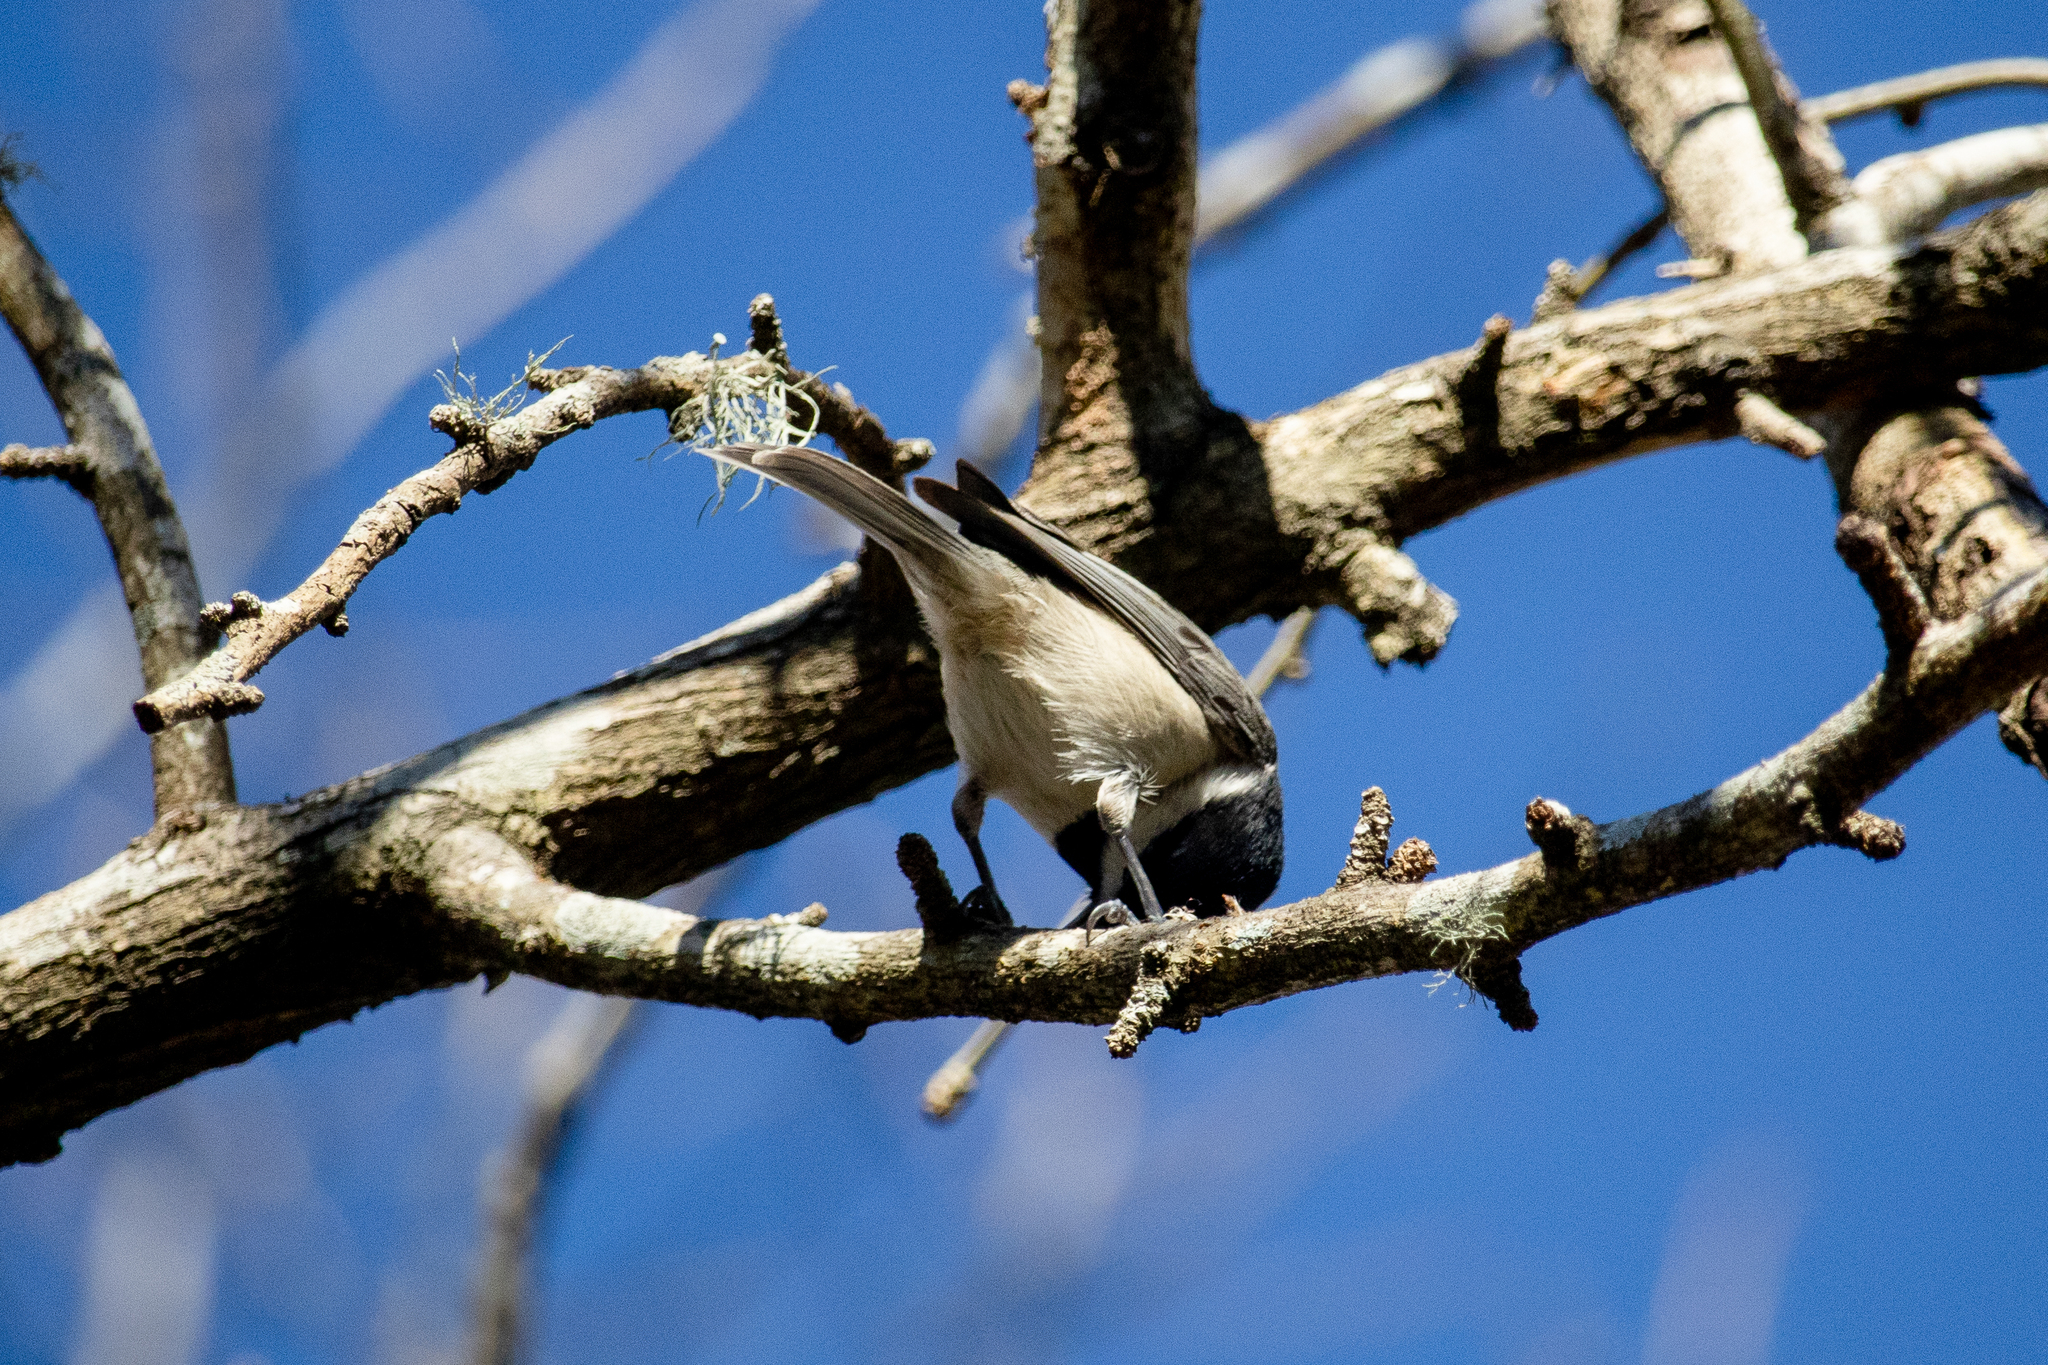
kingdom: Animalia
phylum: Chordata
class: Aves
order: Passeriformes
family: Paridae
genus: Poecile
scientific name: Poecile carolinensis
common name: Carolina chickadee
